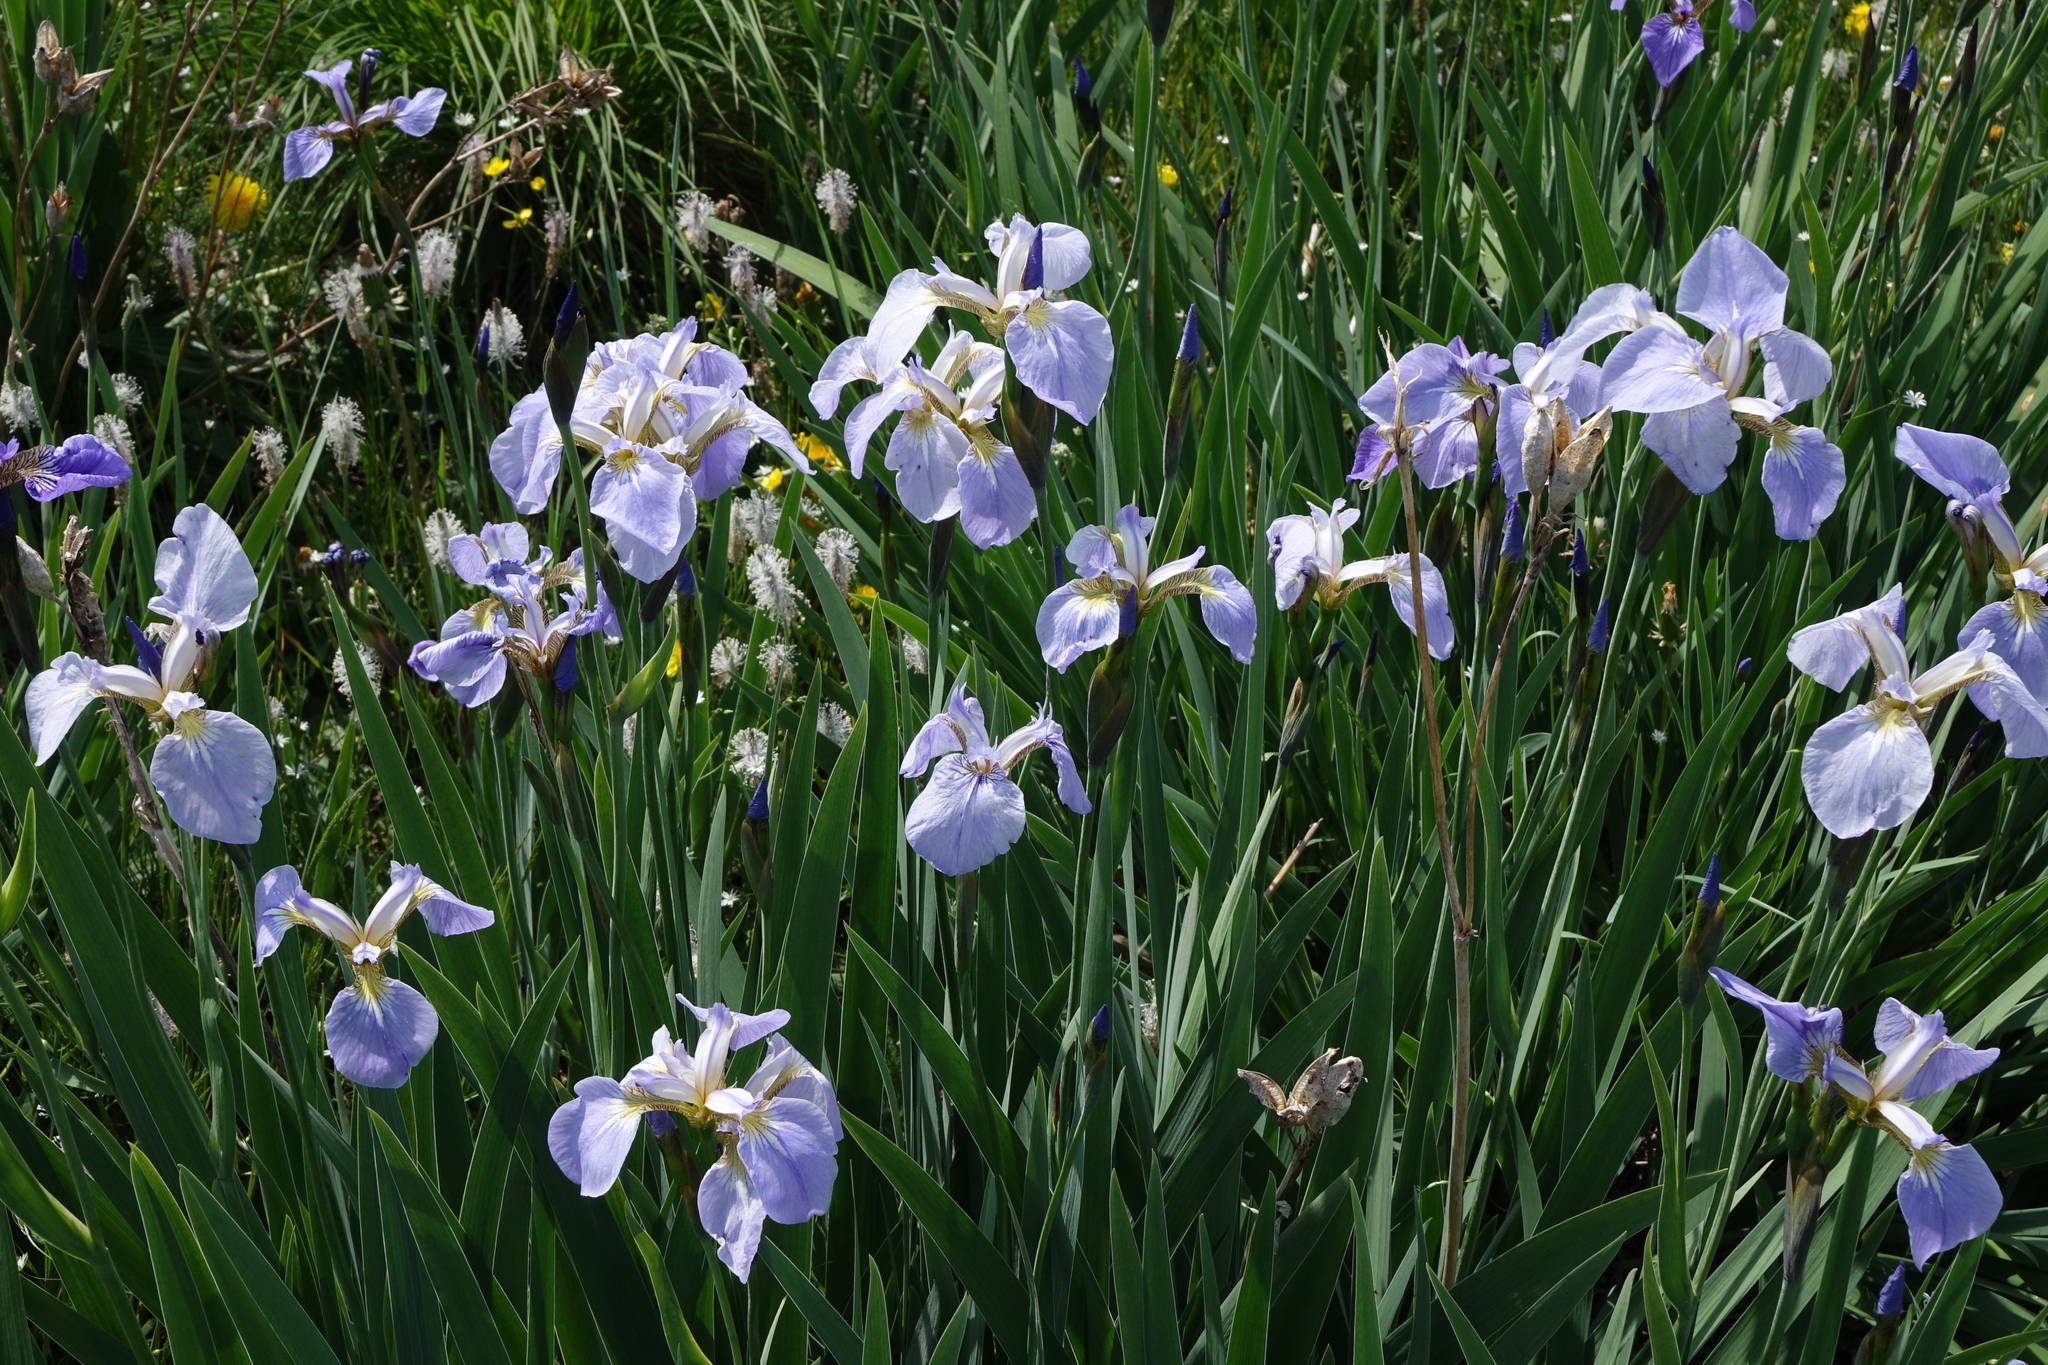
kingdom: Plantae
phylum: Tracheophyta
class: Liliopsida
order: Asparagales
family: Iridaceae
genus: Iris
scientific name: Iris setosa
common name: Arctic blue flag
